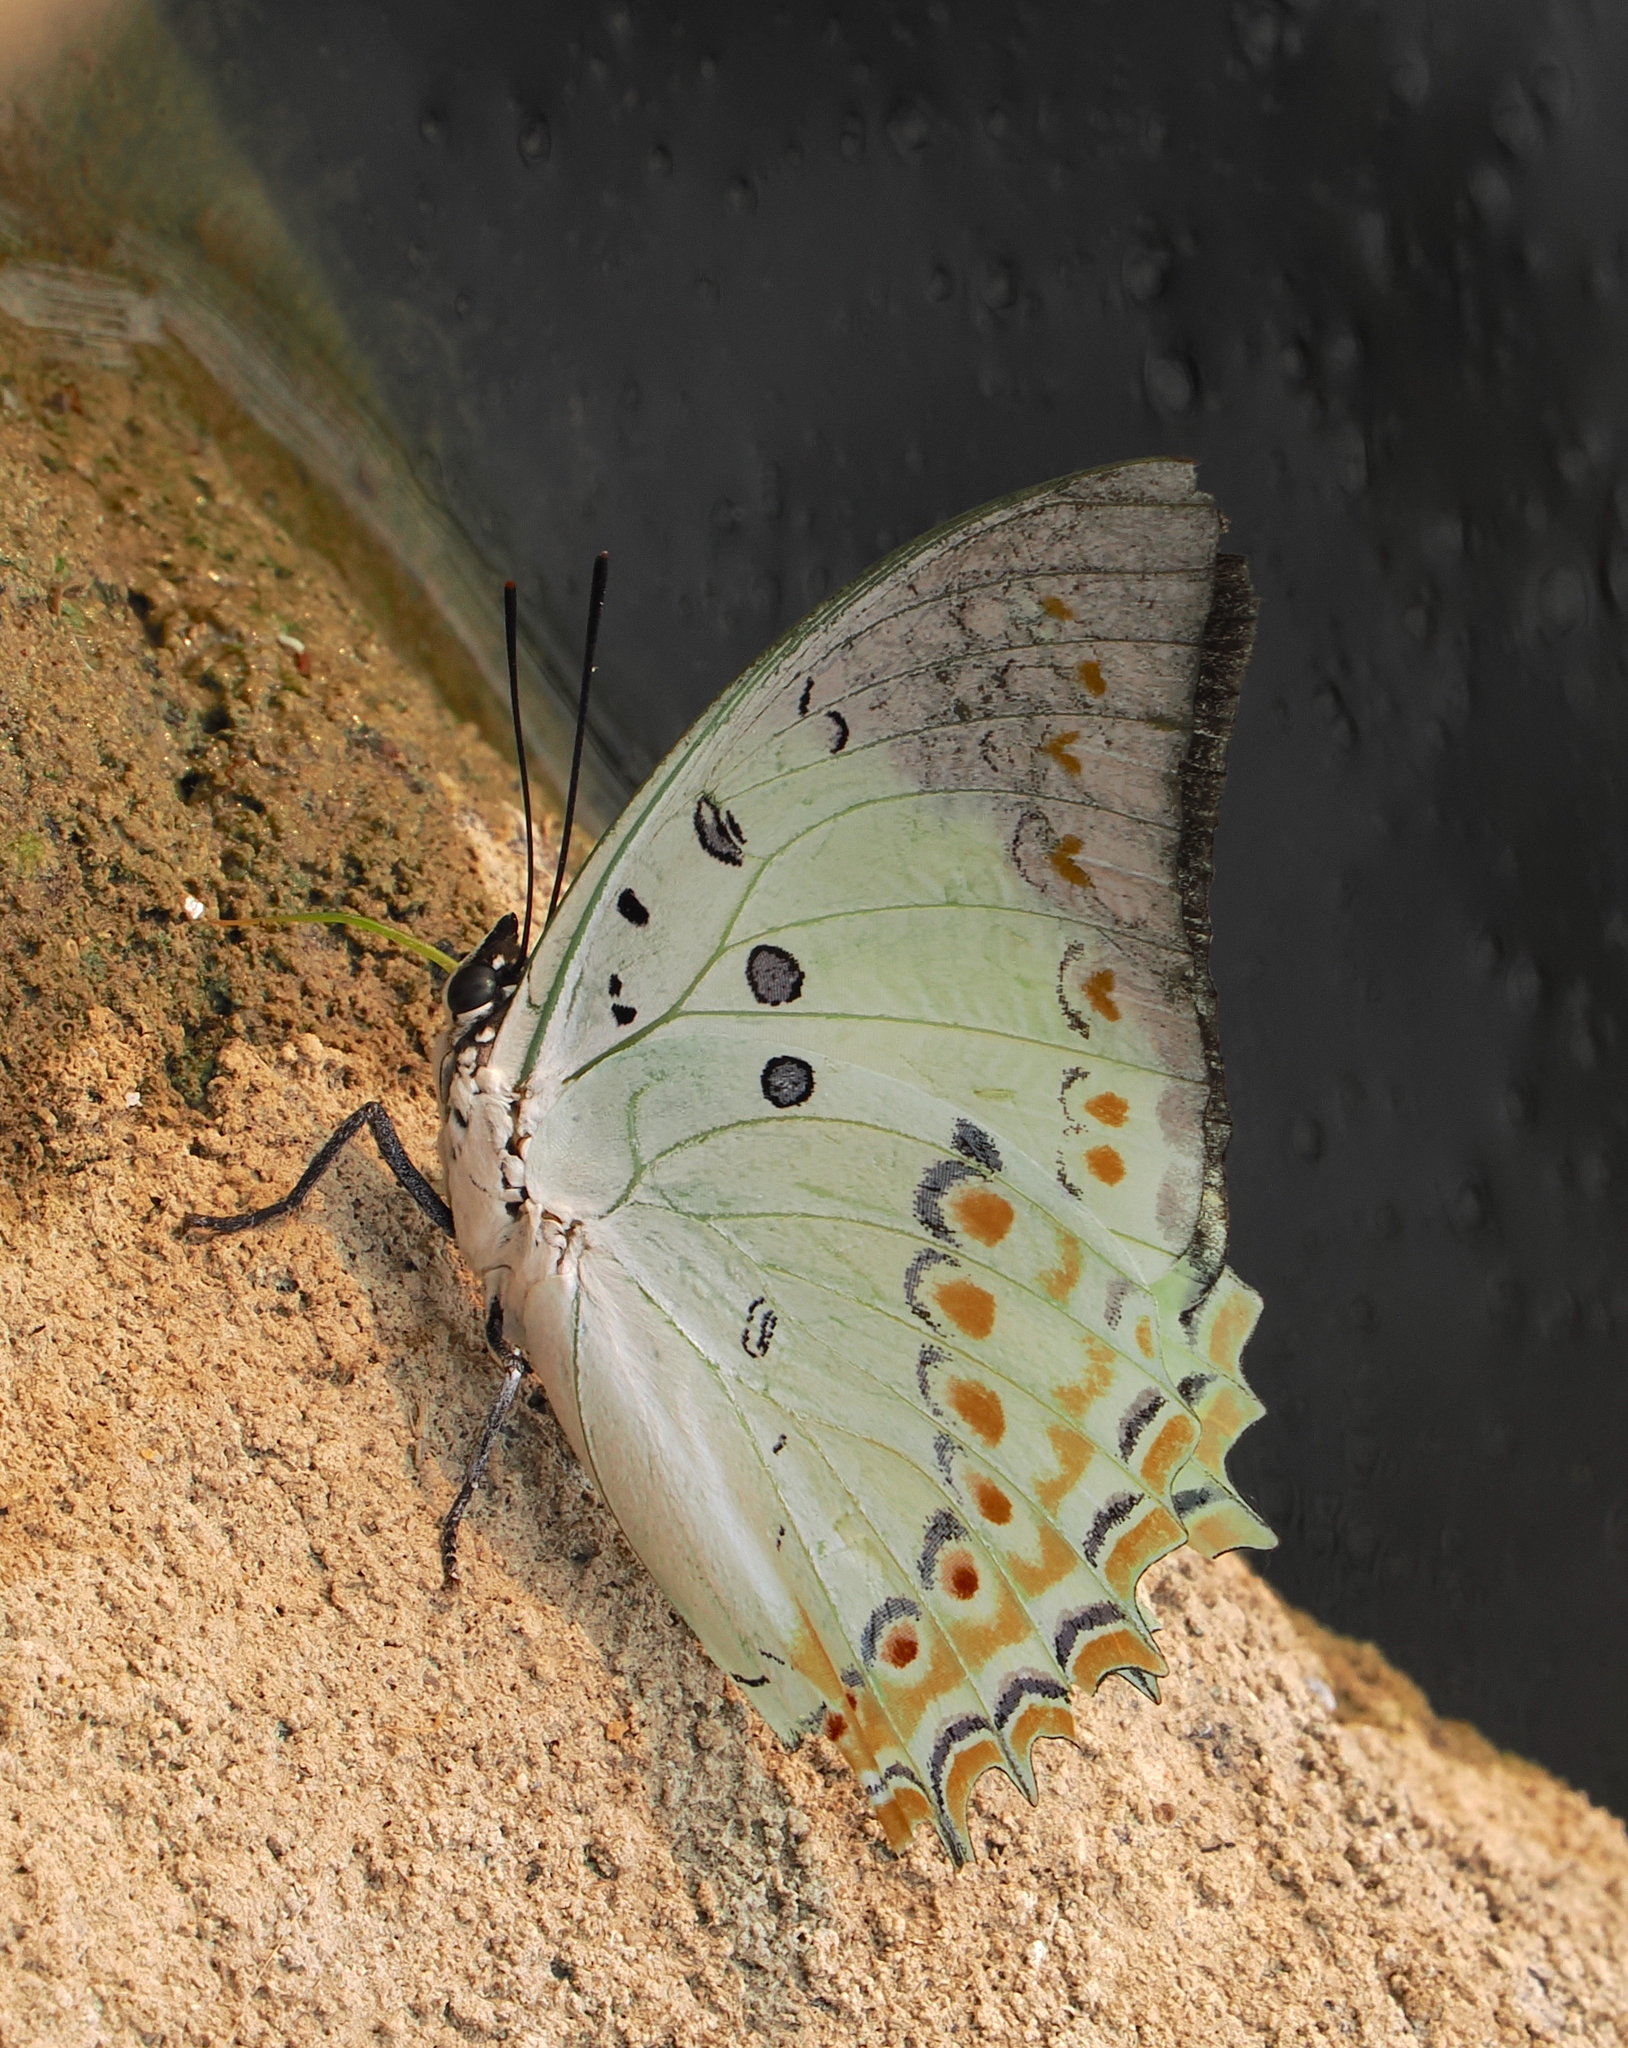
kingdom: Animalia
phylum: Arthropoda
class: Insecta
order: Lepidoptera
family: Nymphalidae
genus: Polyura
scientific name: Polyura delphis
